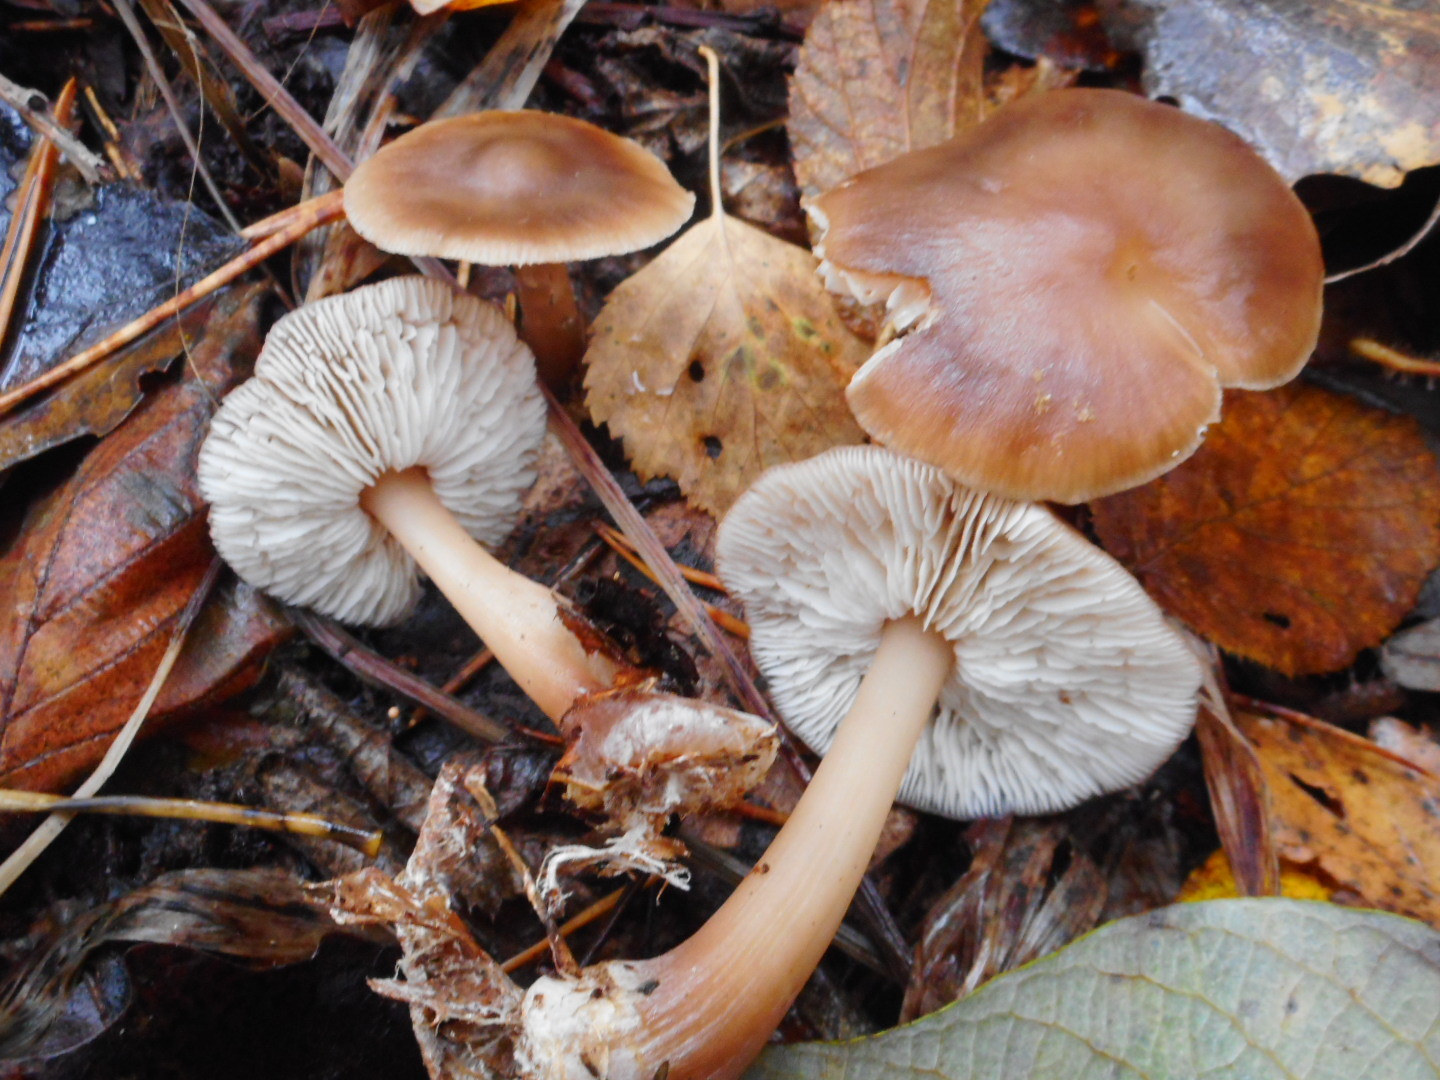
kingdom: Fungi
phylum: Basidiomycota
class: Agaricomycetes
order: Agaricales
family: Omphalotaceae
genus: Rhodocollybia
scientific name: Rhodocollybia butyracea
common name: Butter cap
